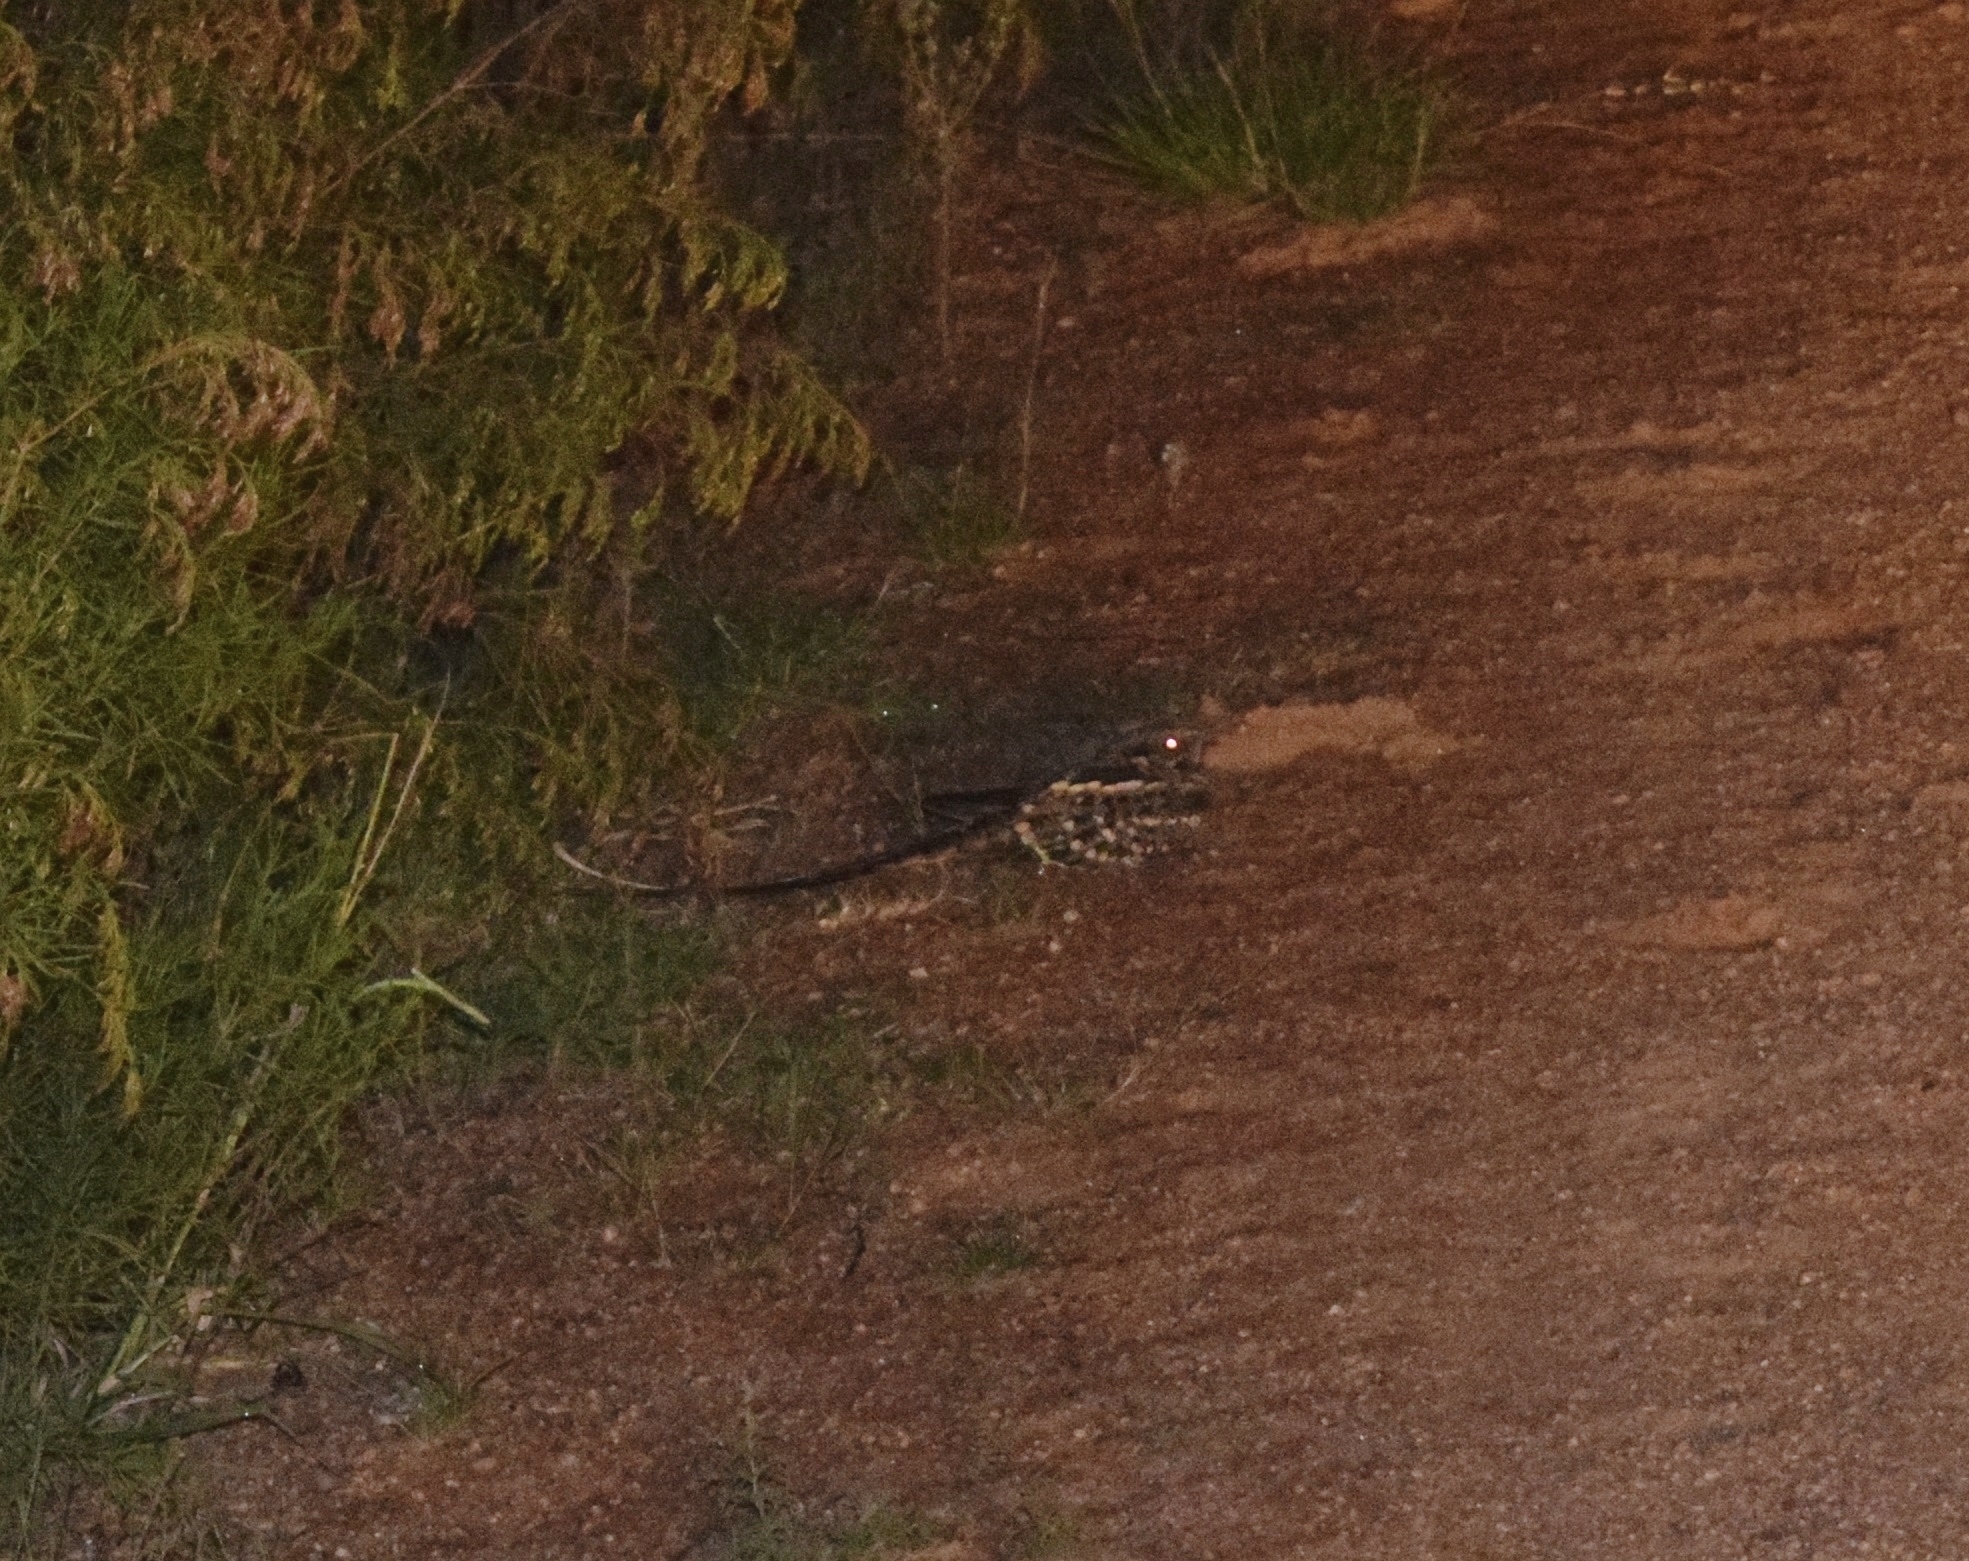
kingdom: Animalia
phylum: Chordata
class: Aves
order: Caprimulgiformes
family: Caprimulgidae
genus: Hydropsalis
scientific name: Hydropsalis torquata
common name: Scissor-tailed nightjar
